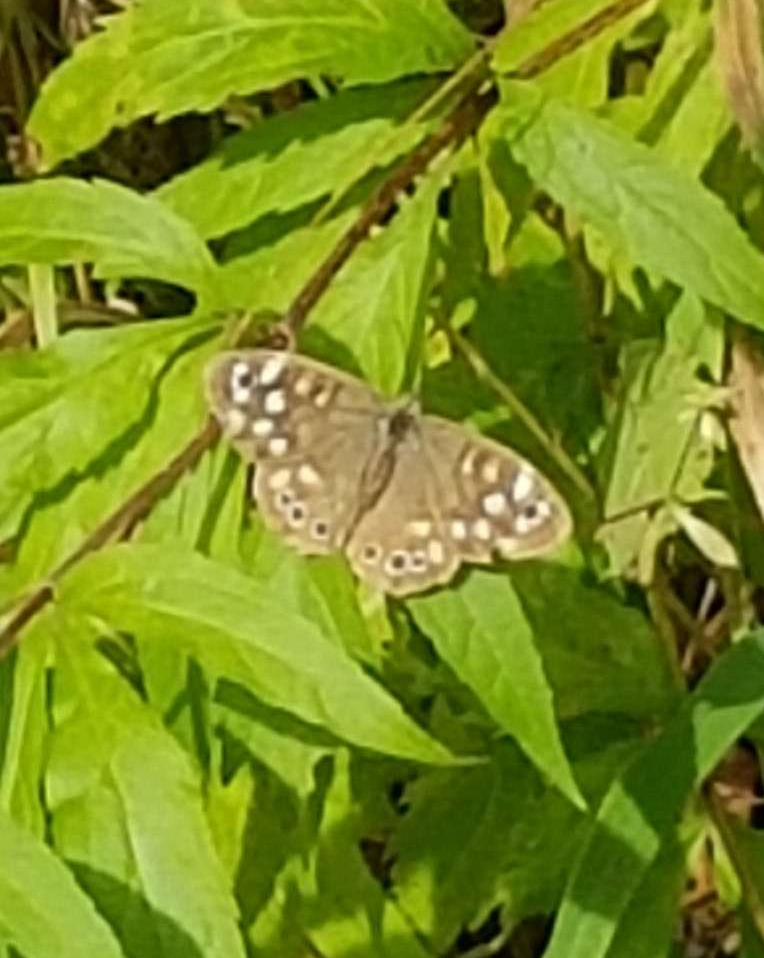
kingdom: Animalia
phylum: Arthropoda
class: Insecta
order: Lepidoptera
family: Nymphalidae
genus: Pararge
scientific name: Pararge aegeria
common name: Speckled wood
